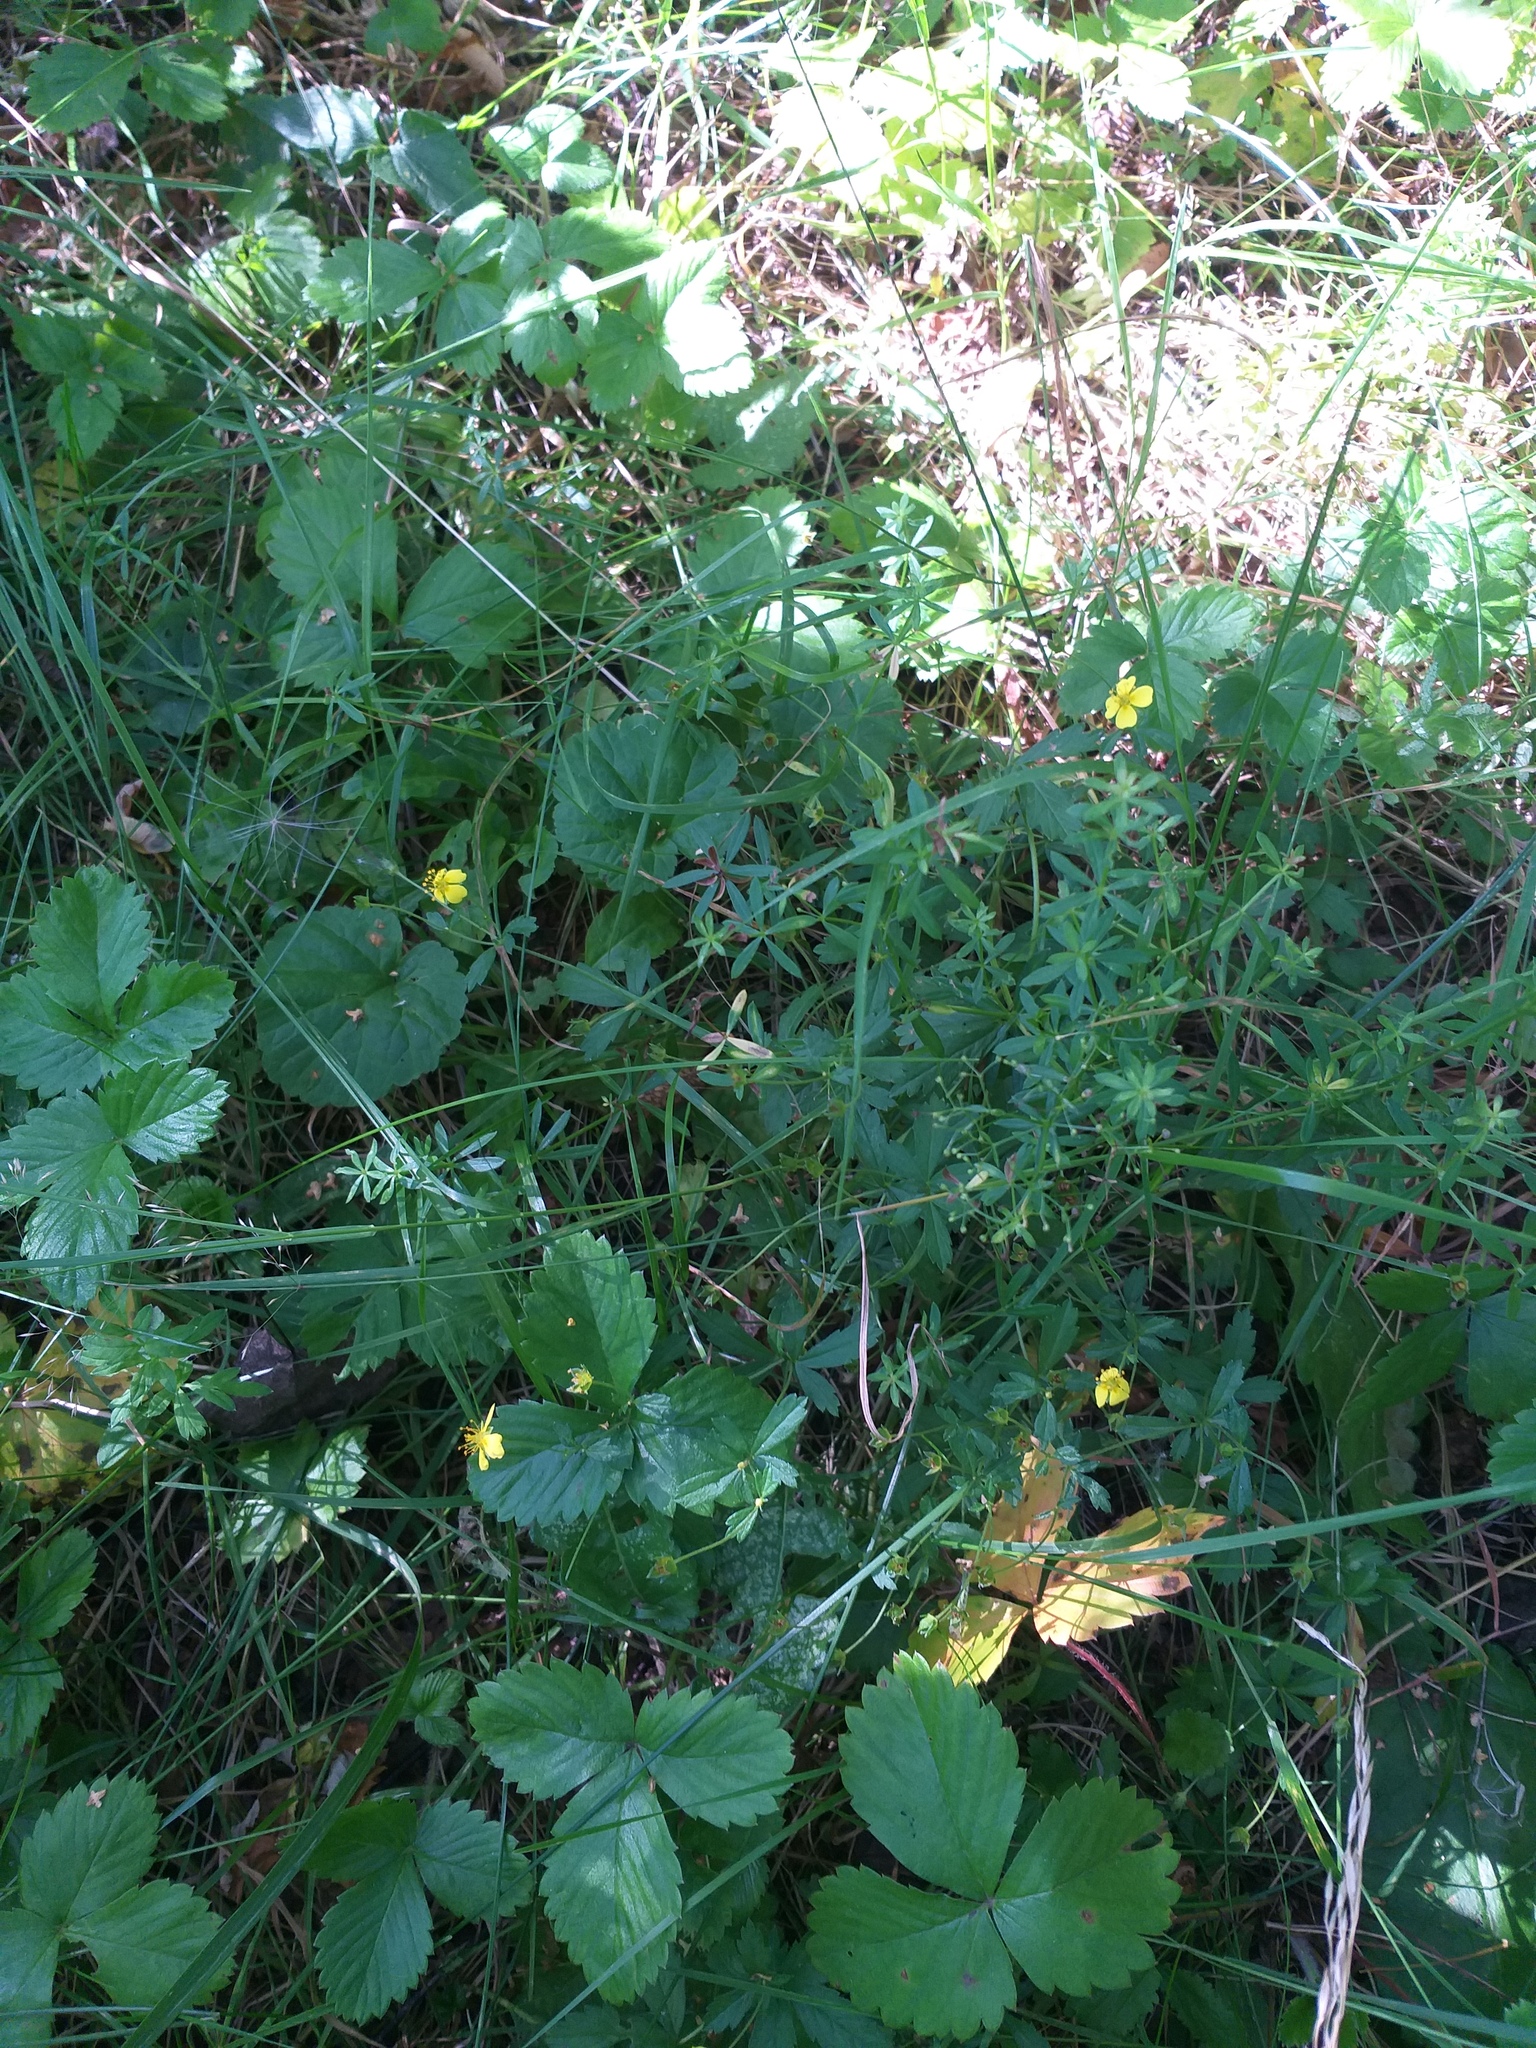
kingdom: Plantae
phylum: Tracheophyta
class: Magnoliopsida
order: Rosales
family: Rosaceae
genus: Potentilla
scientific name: Potentilla erecta
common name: Tormentil
